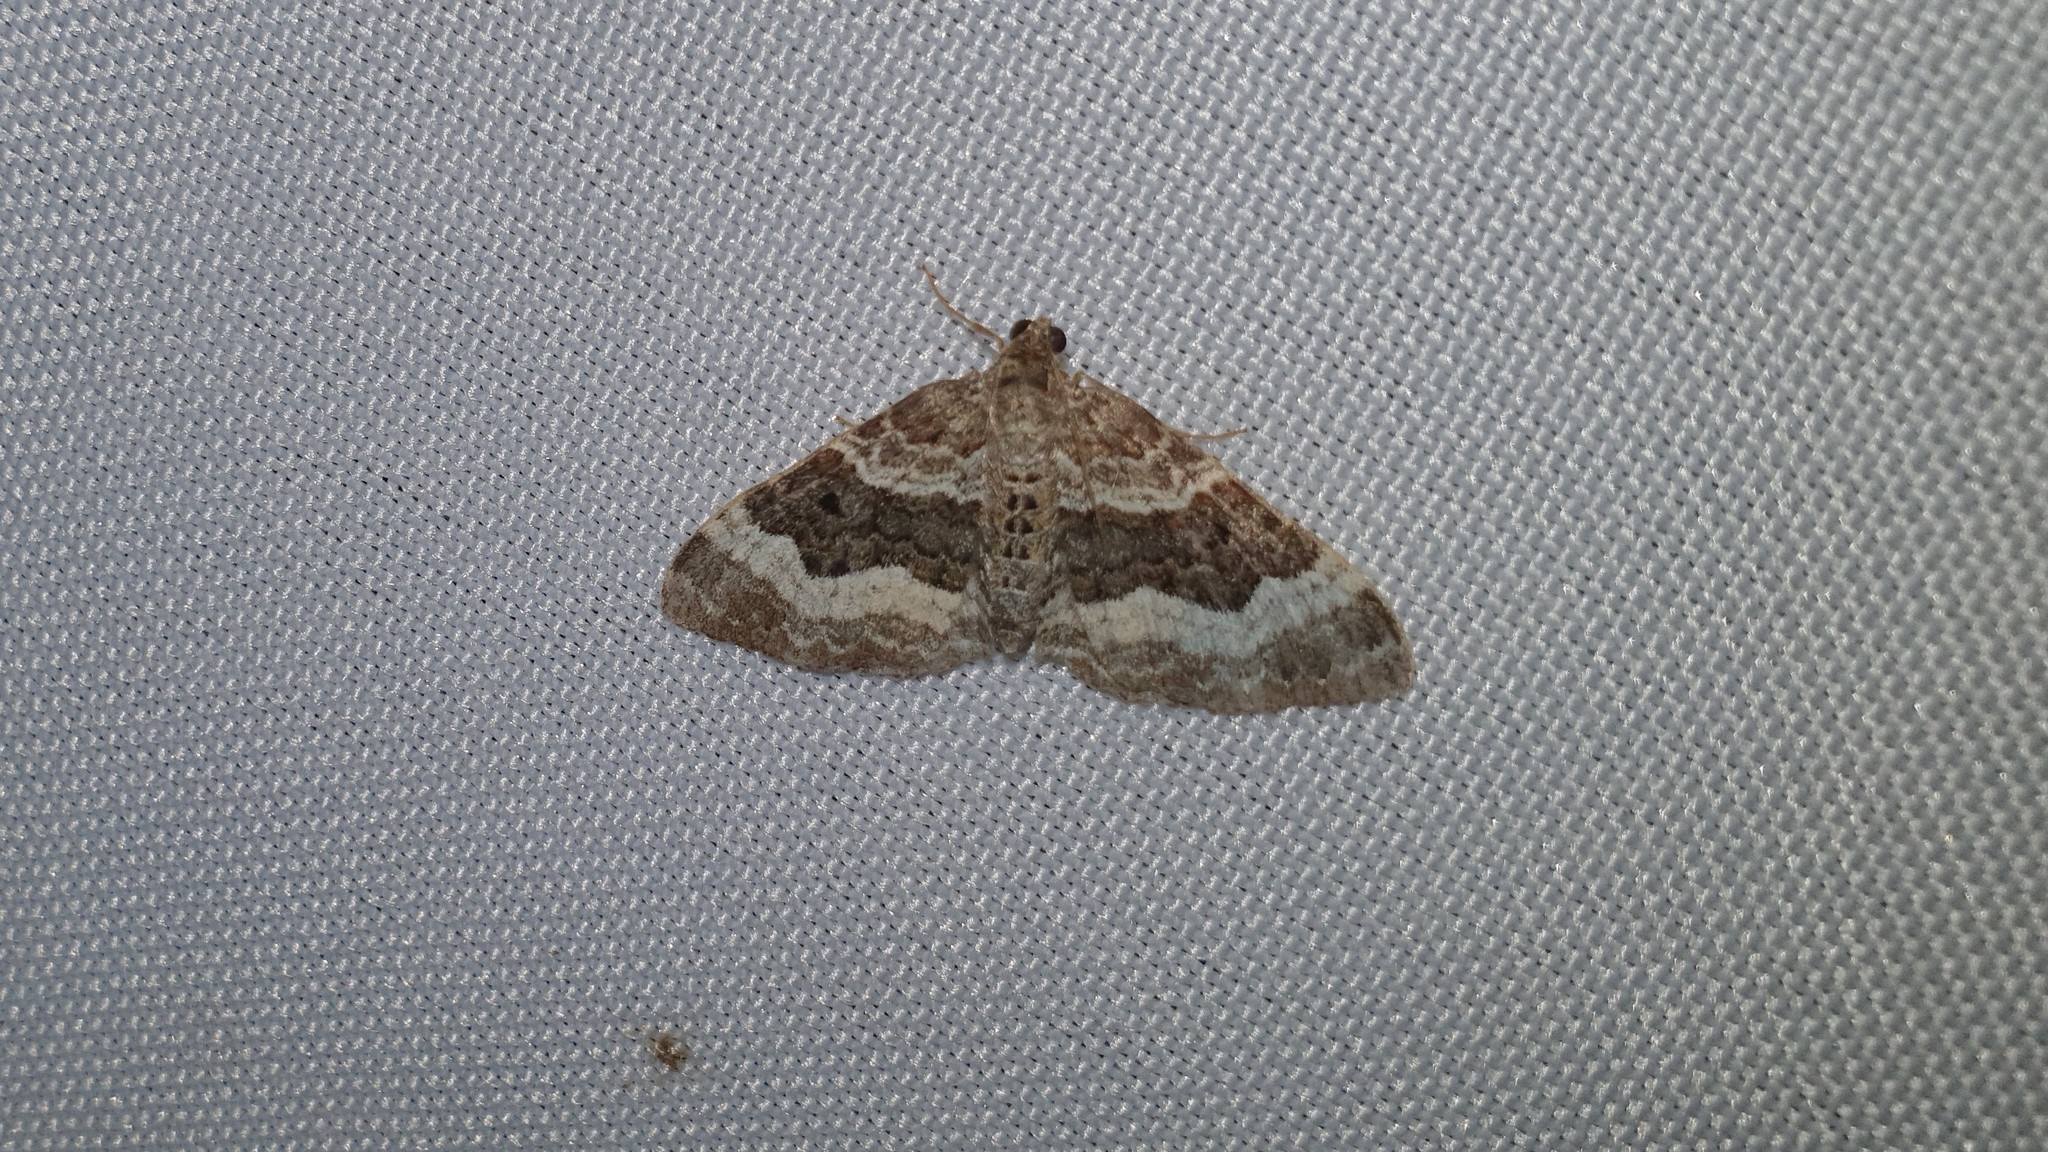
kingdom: Animalia
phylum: Arthropoda
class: Insecta
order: Lepidoptera
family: Geometridae
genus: Epirrhoe
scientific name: Epirrhoe alternata
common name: Common carpet
